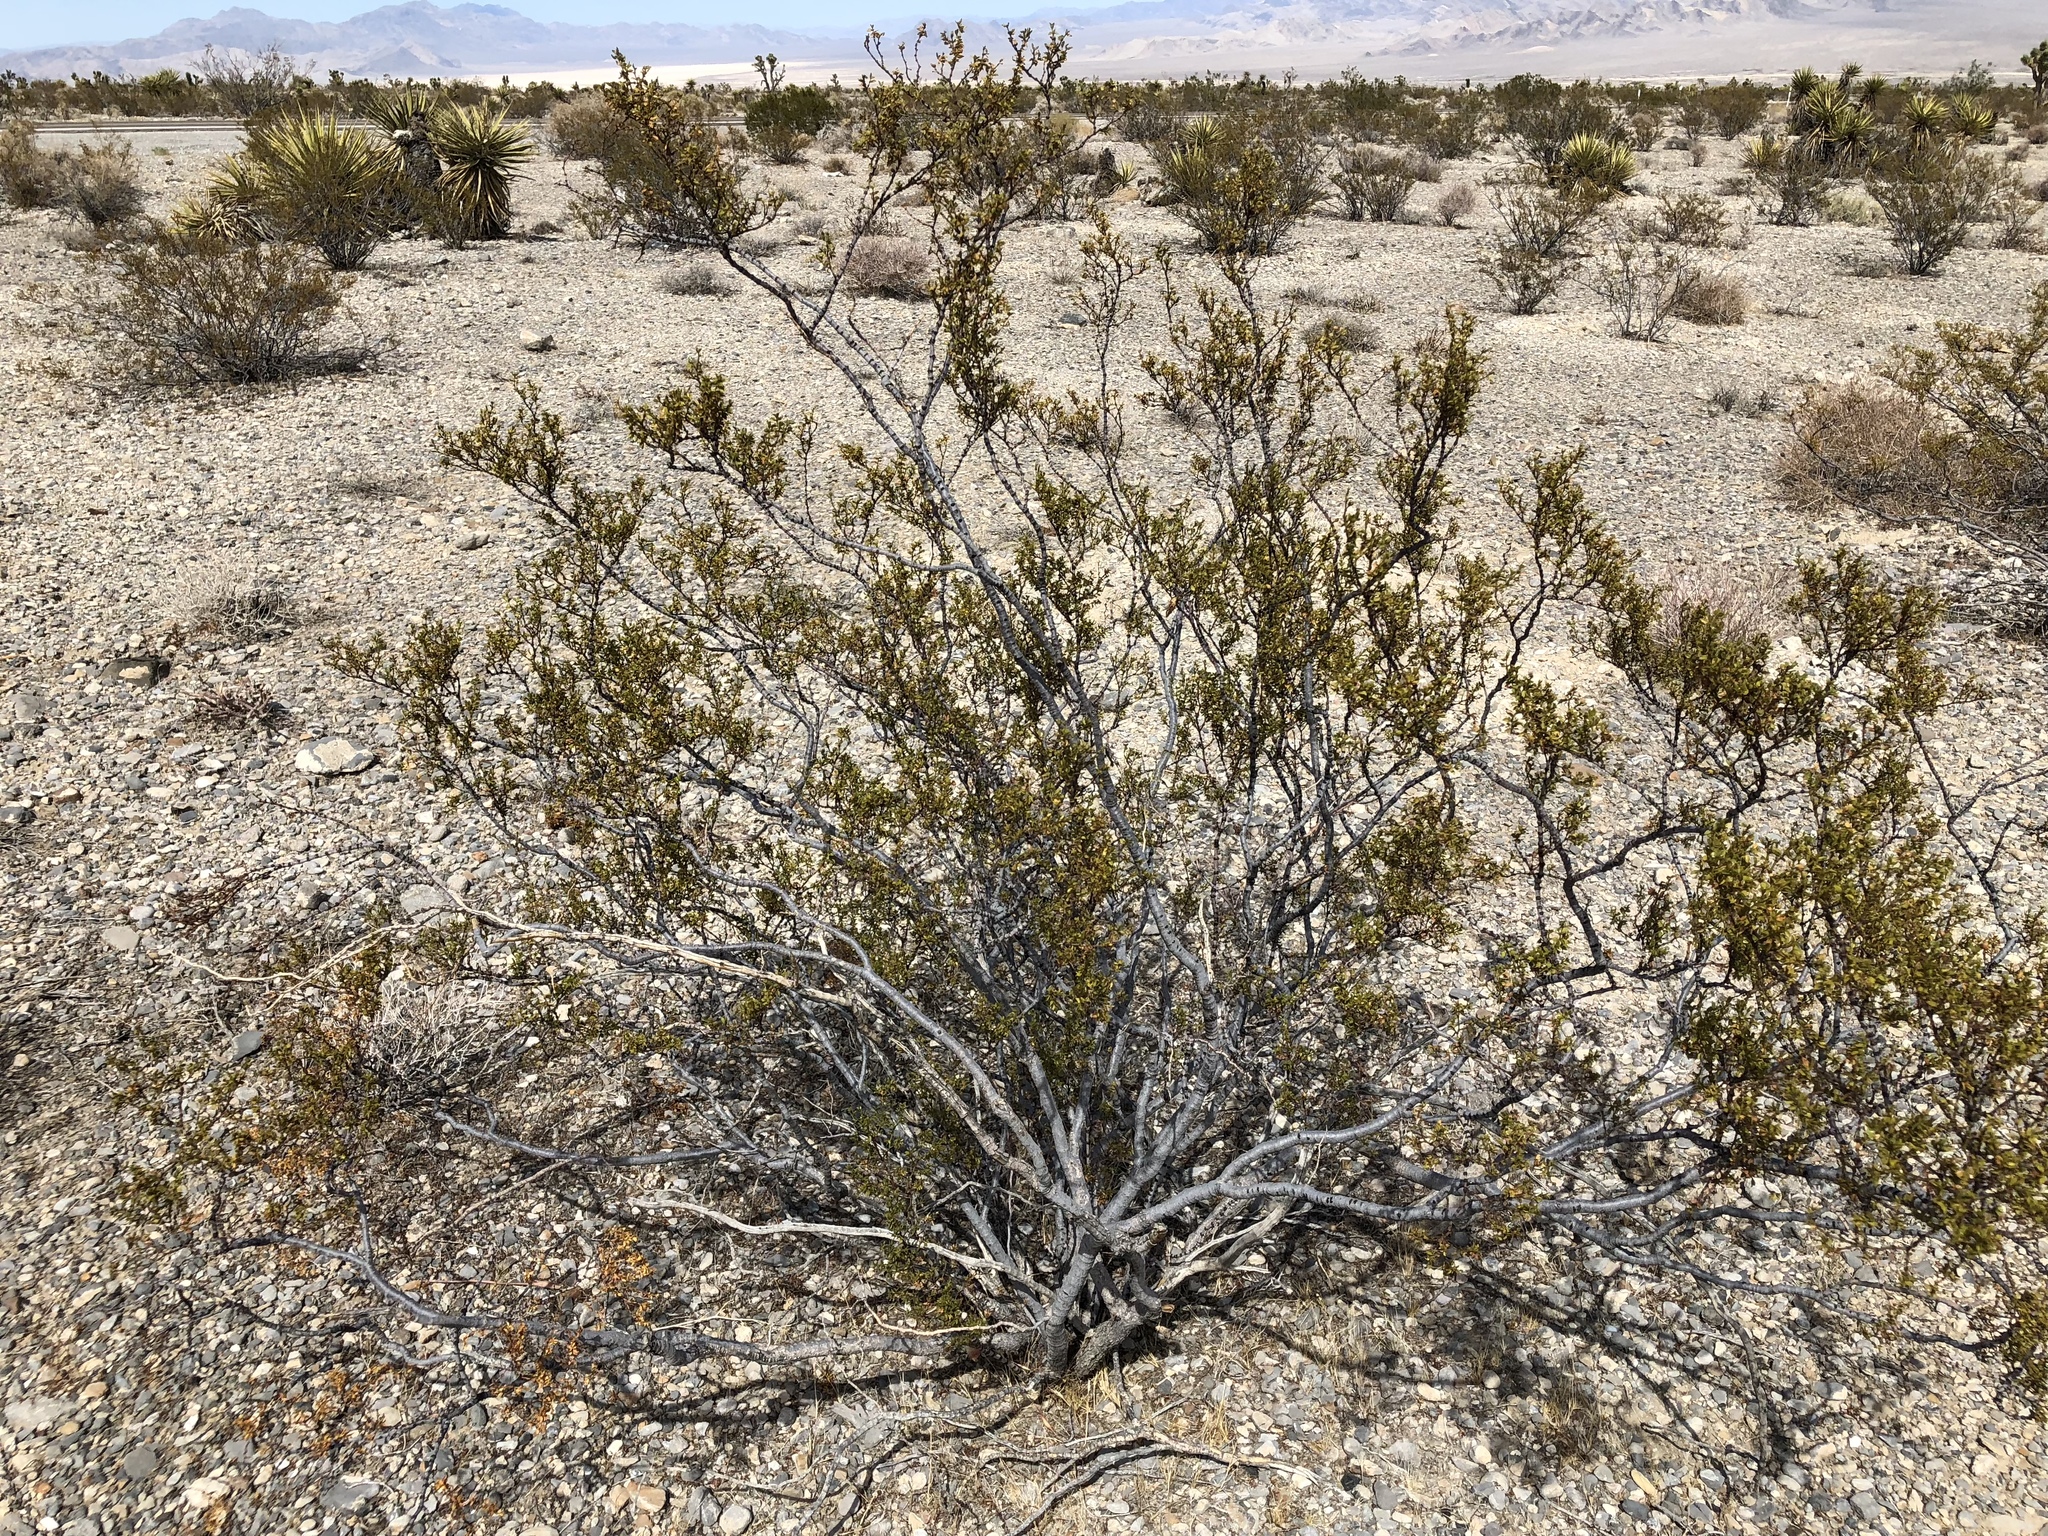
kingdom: Plantae
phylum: Tracheophyta
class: Magnoliopsida
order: Zygophyllales
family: Zygophyllaceae
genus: Larrea
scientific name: Larrea tridentata
